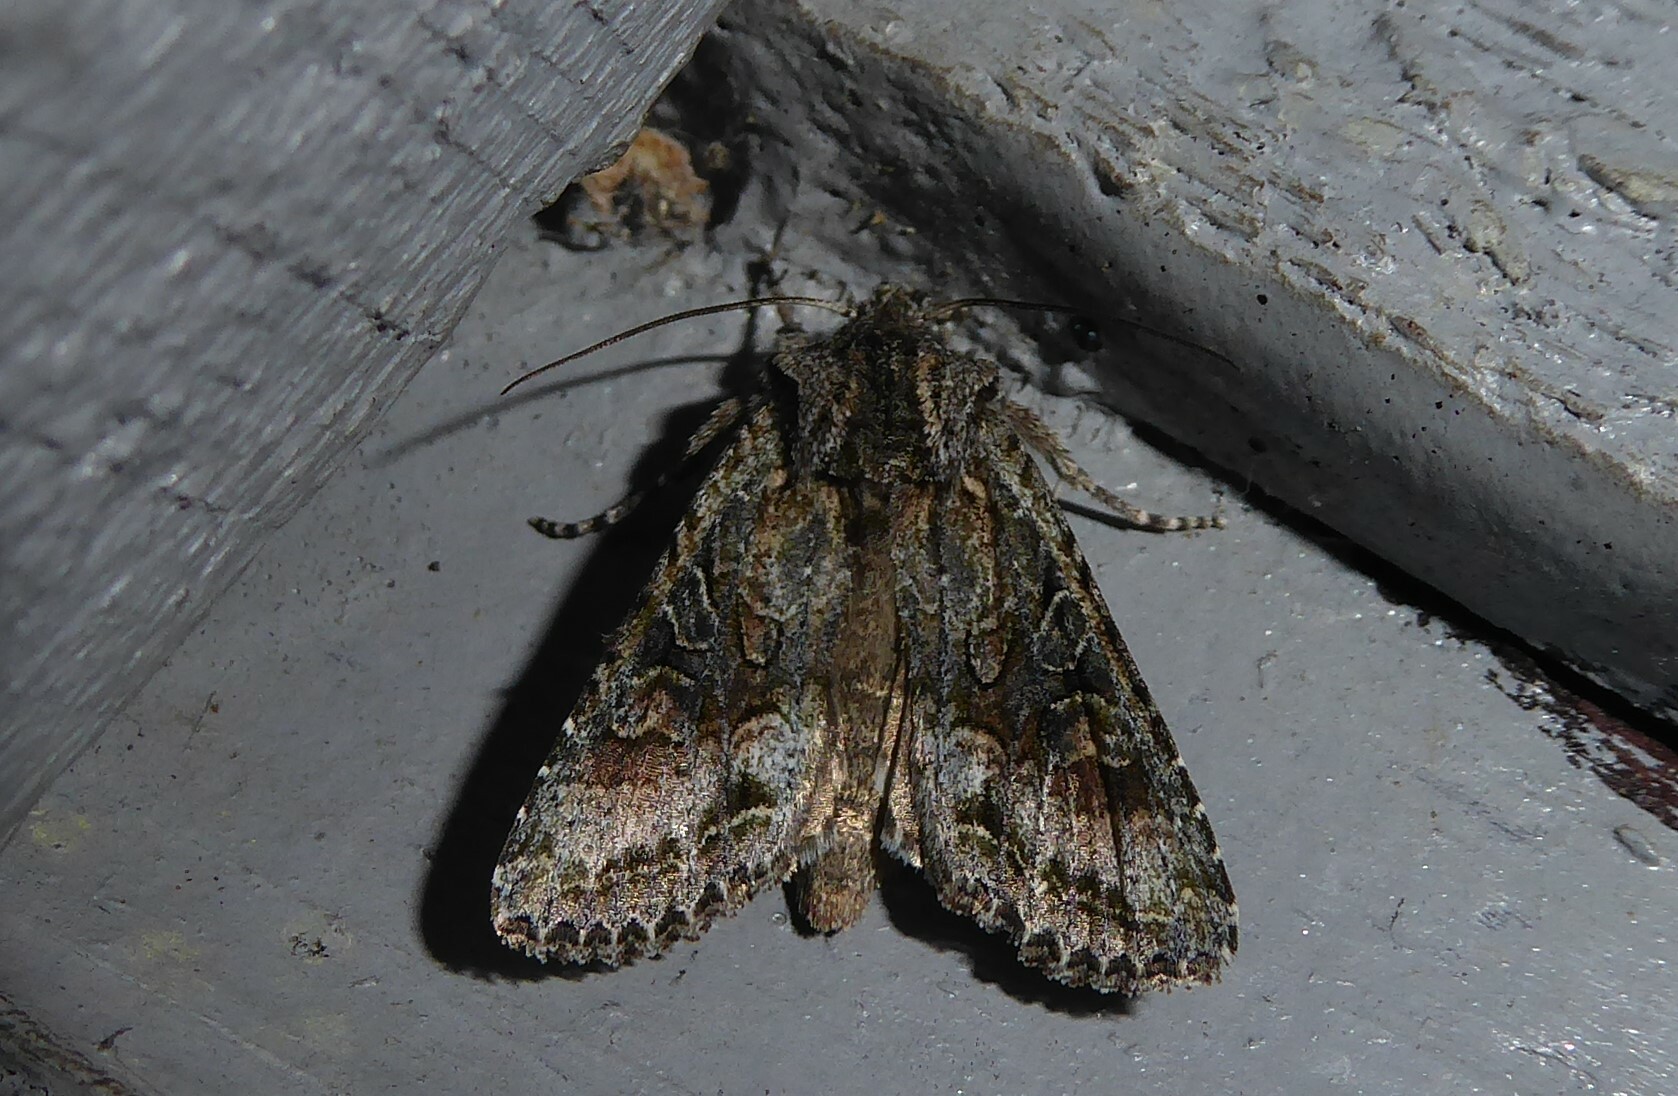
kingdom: Animalia
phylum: Arthropoda
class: Insecta
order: Lepidoptera
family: Noctuidae
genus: Ichneutica
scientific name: Ichneutica mutans
